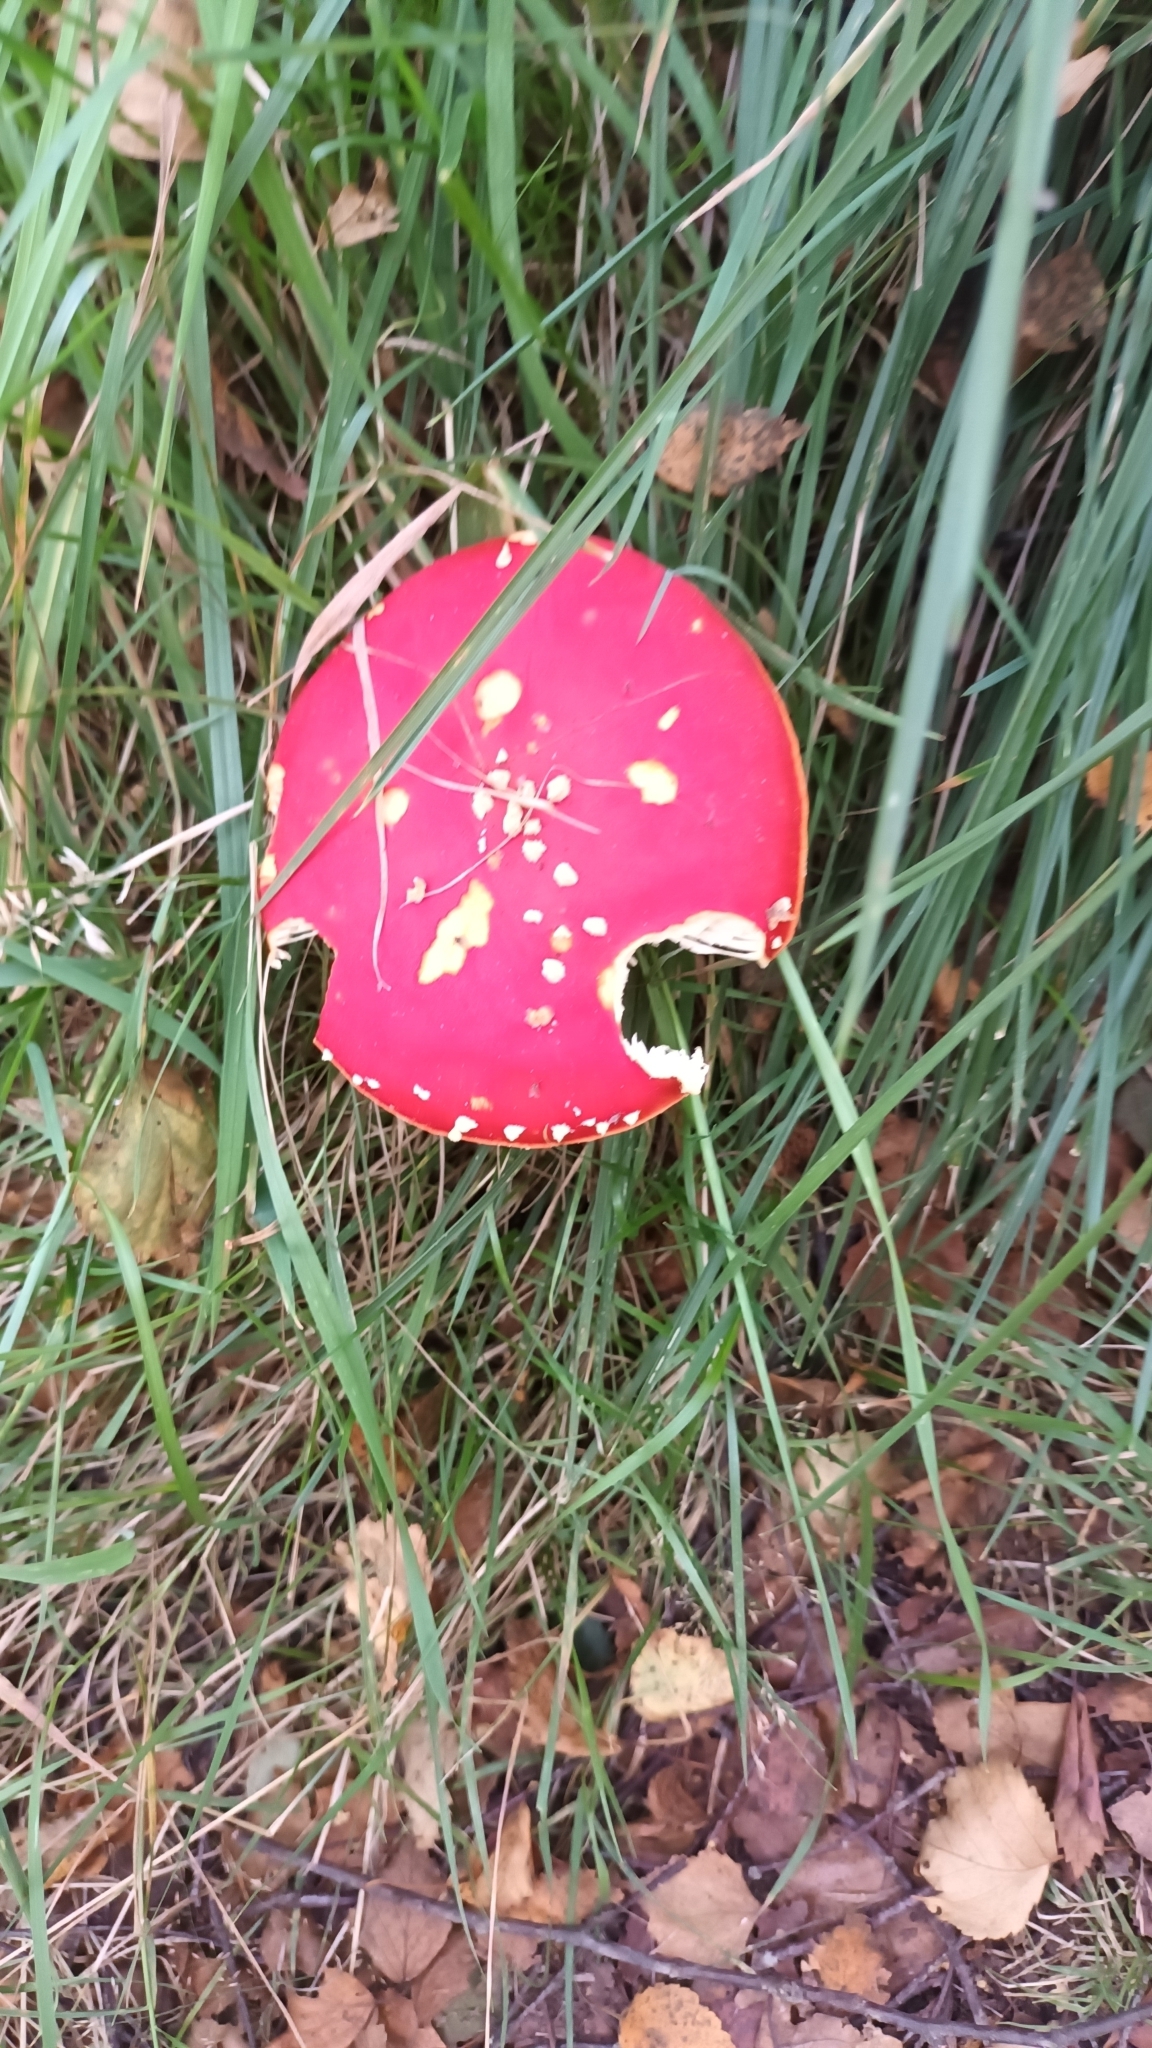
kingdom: Fungi
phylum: Basidiomycota
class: Agaricomycetes
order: Agaricales
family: Amanitaceae
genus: Amanita
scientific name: Amanita muscaria
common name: Fly agaric
